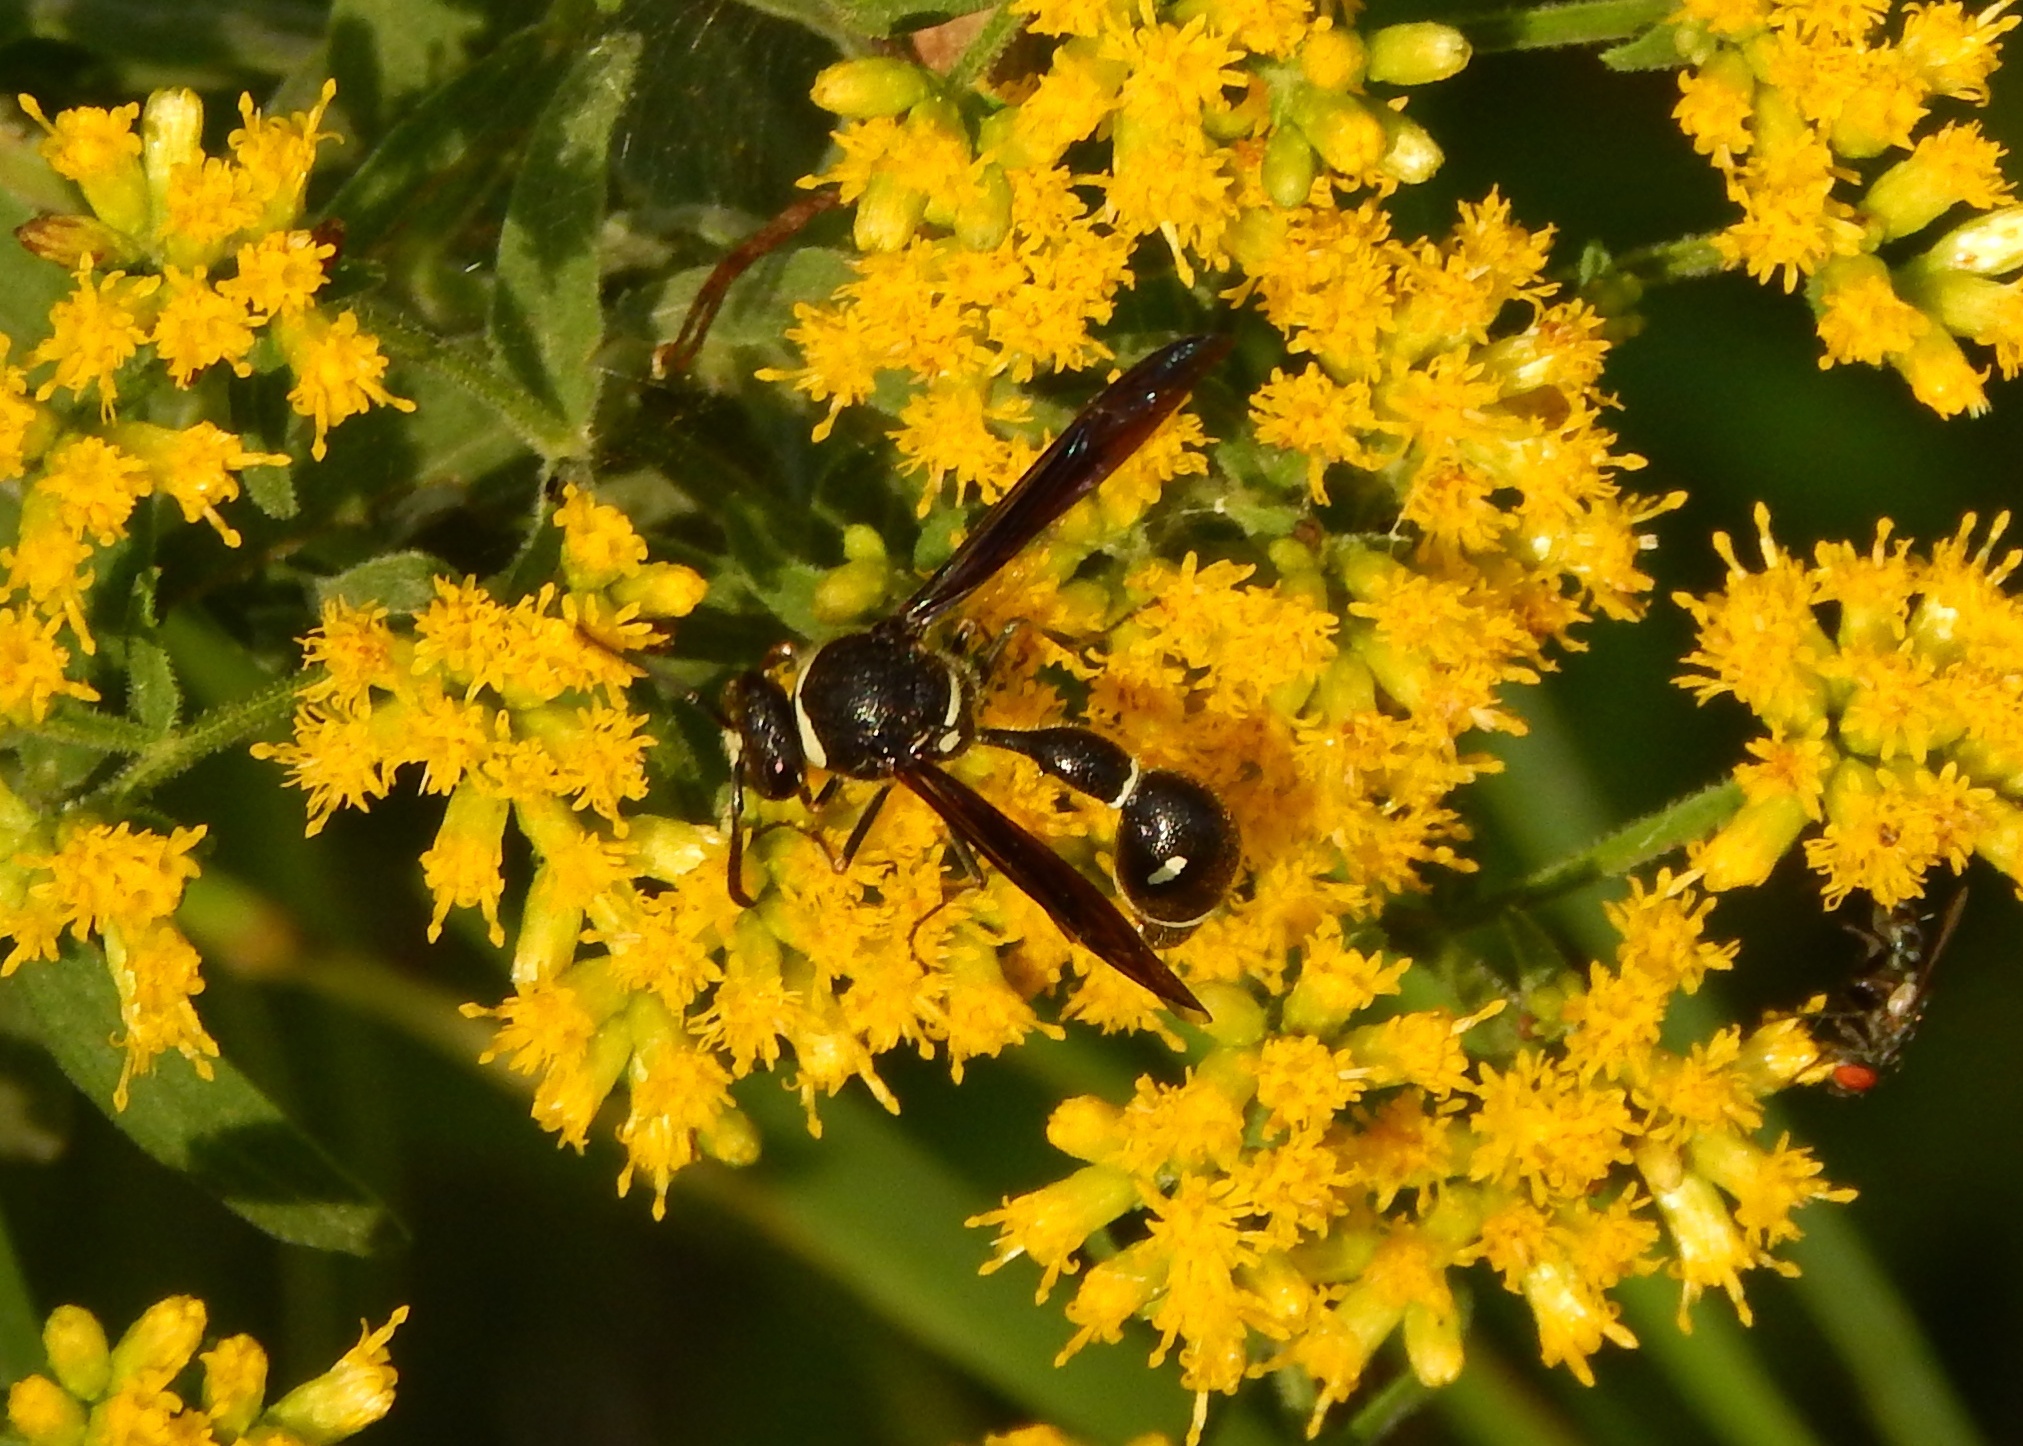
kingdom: Animalia
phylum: Arthropoda
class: Insecta
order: Hymenoptera
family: Vespidae
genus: Eumenes
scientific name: Eumenes fraternus
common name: Fraternal potter wasp
